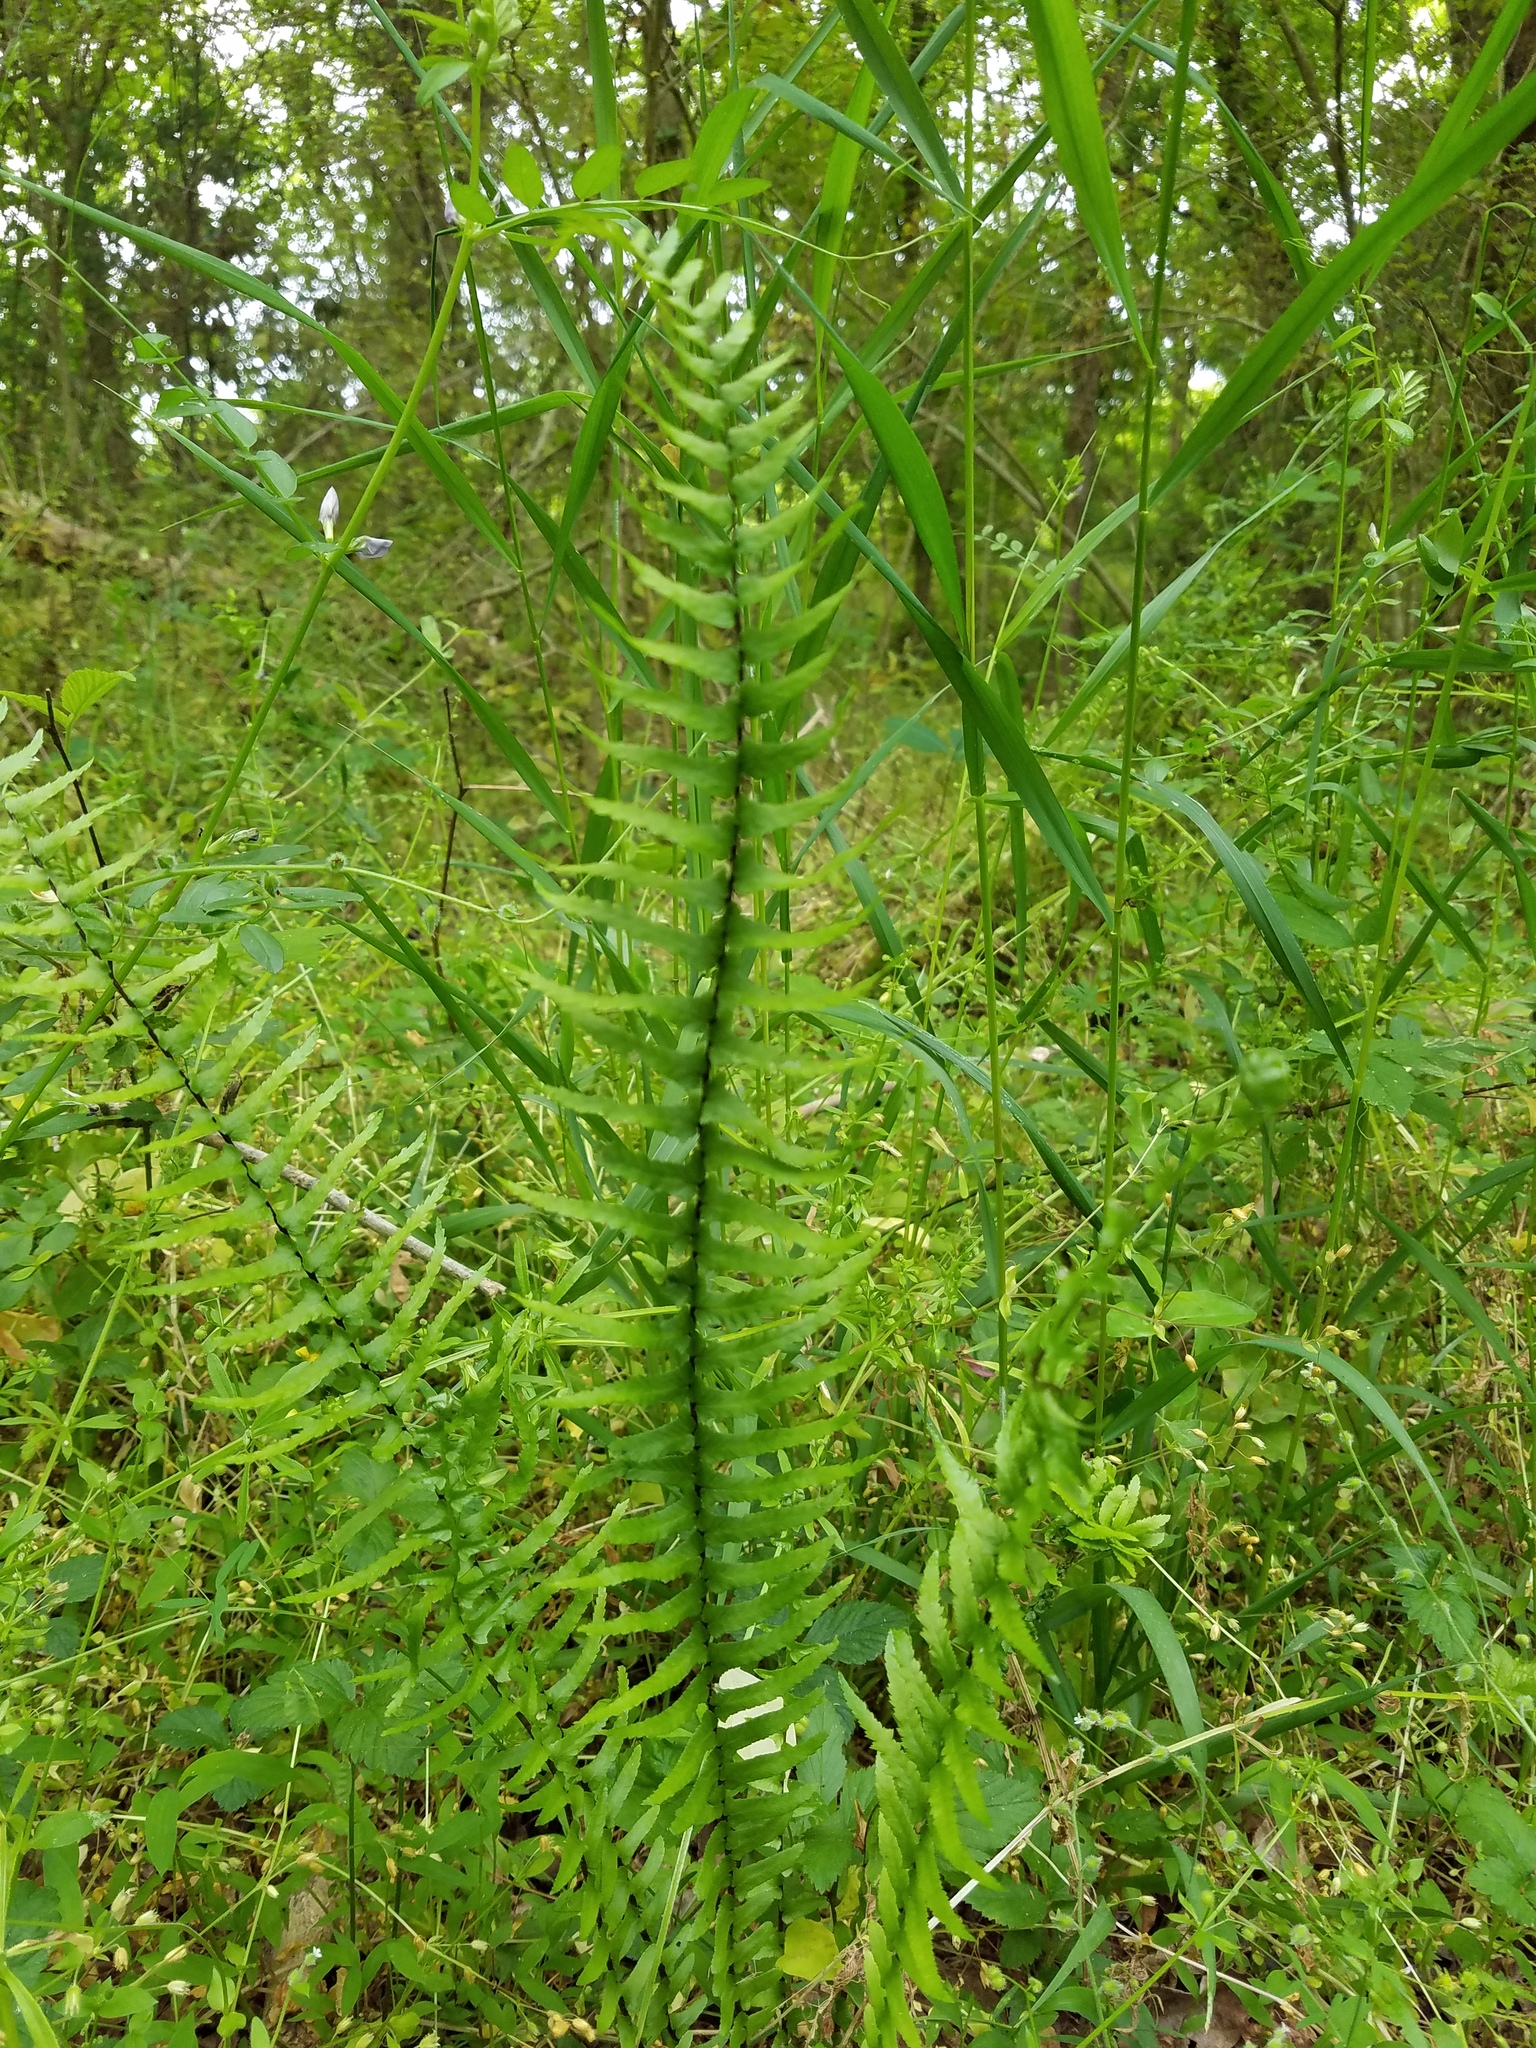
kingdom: Plantae
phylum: Tracheophyta
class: Polypodiopsida
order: Polypodiales
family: Aspleniaceae
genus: Asplenium
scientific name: Asplenium platyneuron
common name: Ebony spleenwort
